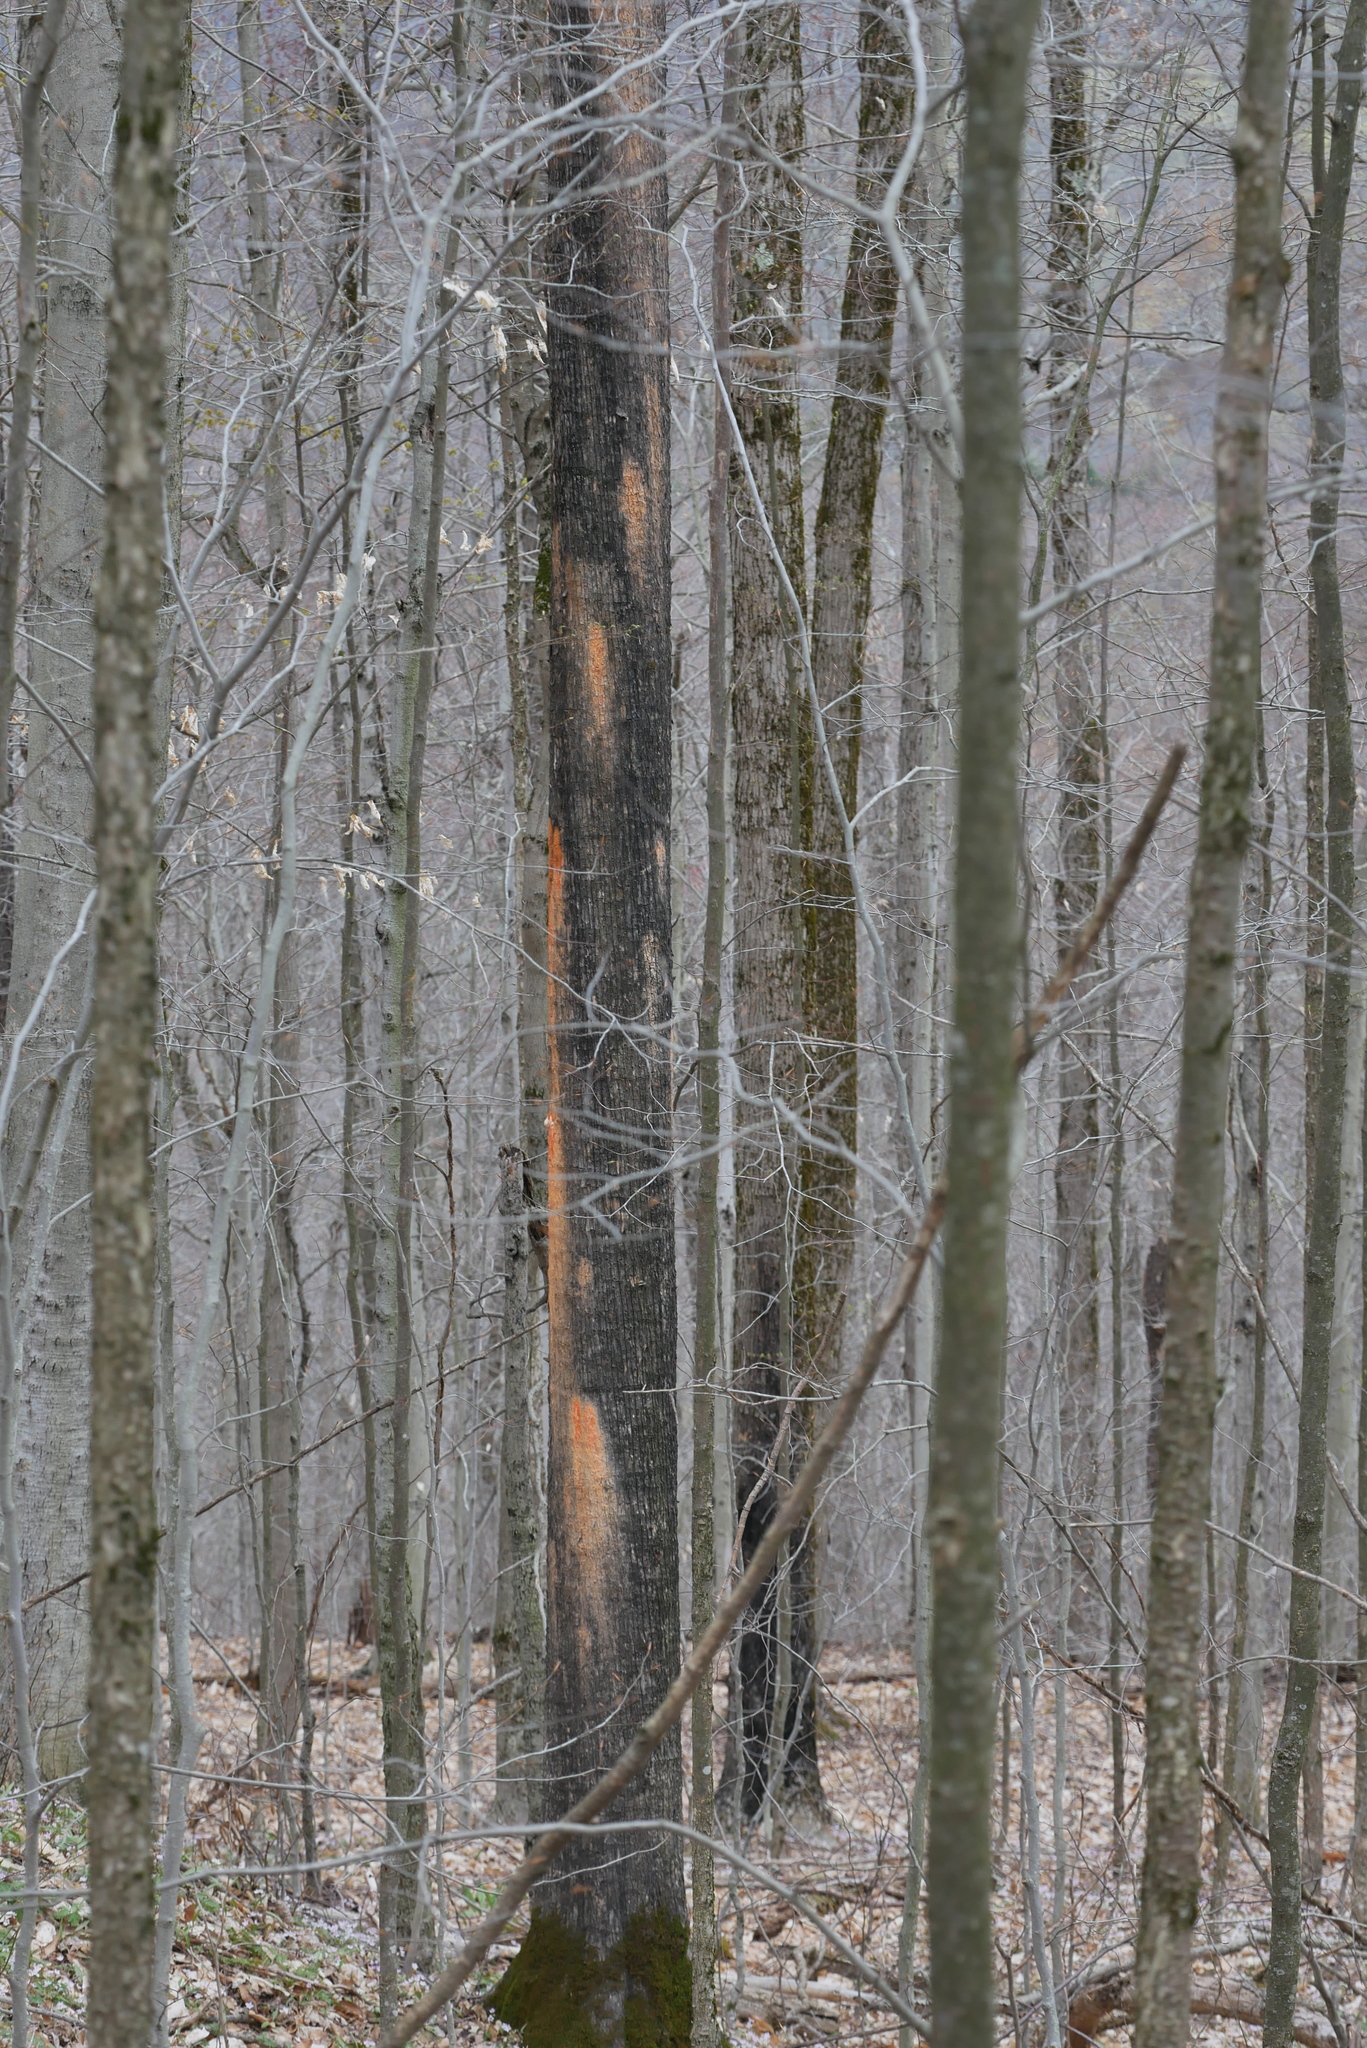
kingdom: Fungi
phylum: Basidiomycota
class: Tremellomycetes
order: Cystofilobasidiales
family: Cystofilobasidiaceae
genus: Cystofilobasidium
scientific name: Cystofilobasidium macerans
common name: Sap yeast
